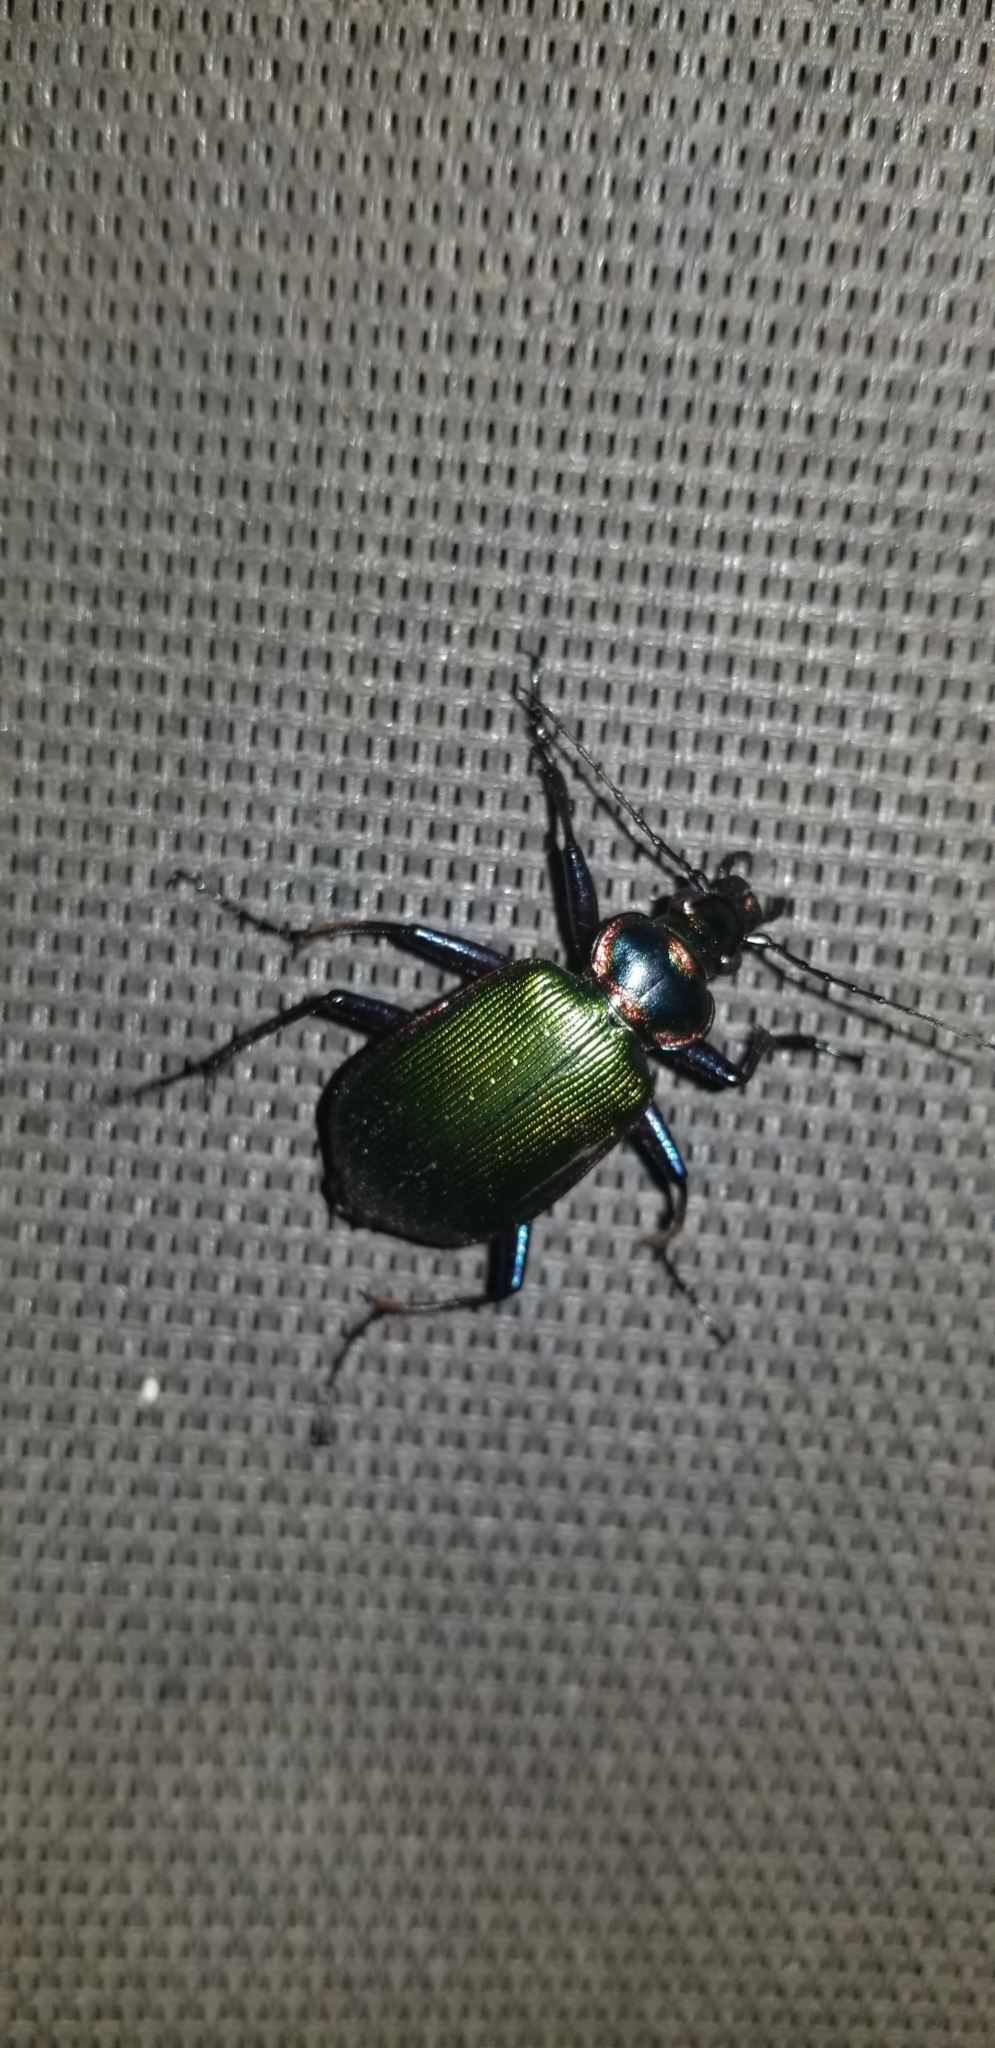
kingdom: Animalia
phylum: Arthropoda
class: Insecta
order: Coleoptera
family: Carabidae
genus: Calosoma
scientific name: Calosoma scrutator
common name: Fiery searcher beetle
